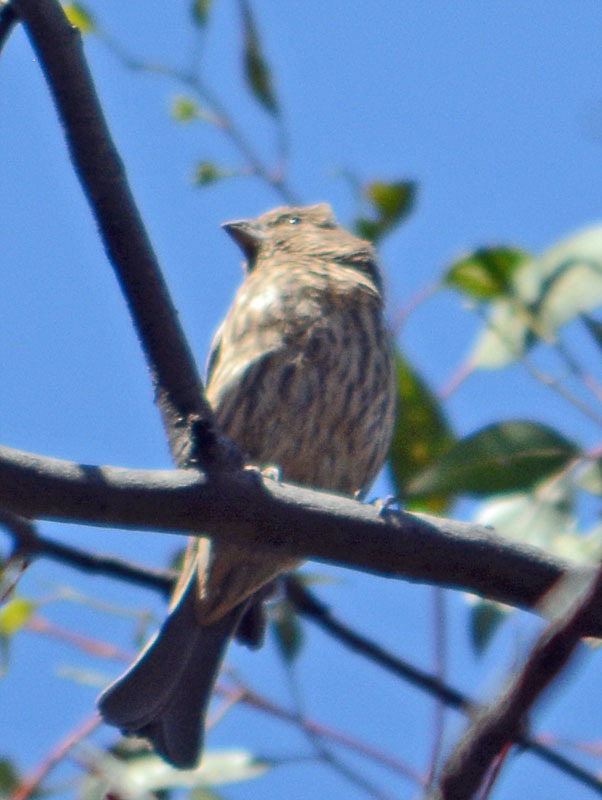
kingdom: Animalia
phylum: Chordata
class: Aves
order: Passeriformes
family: Fringillidae
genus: Haemorhous
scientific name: Haemorhous mexicanus
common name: House finch
